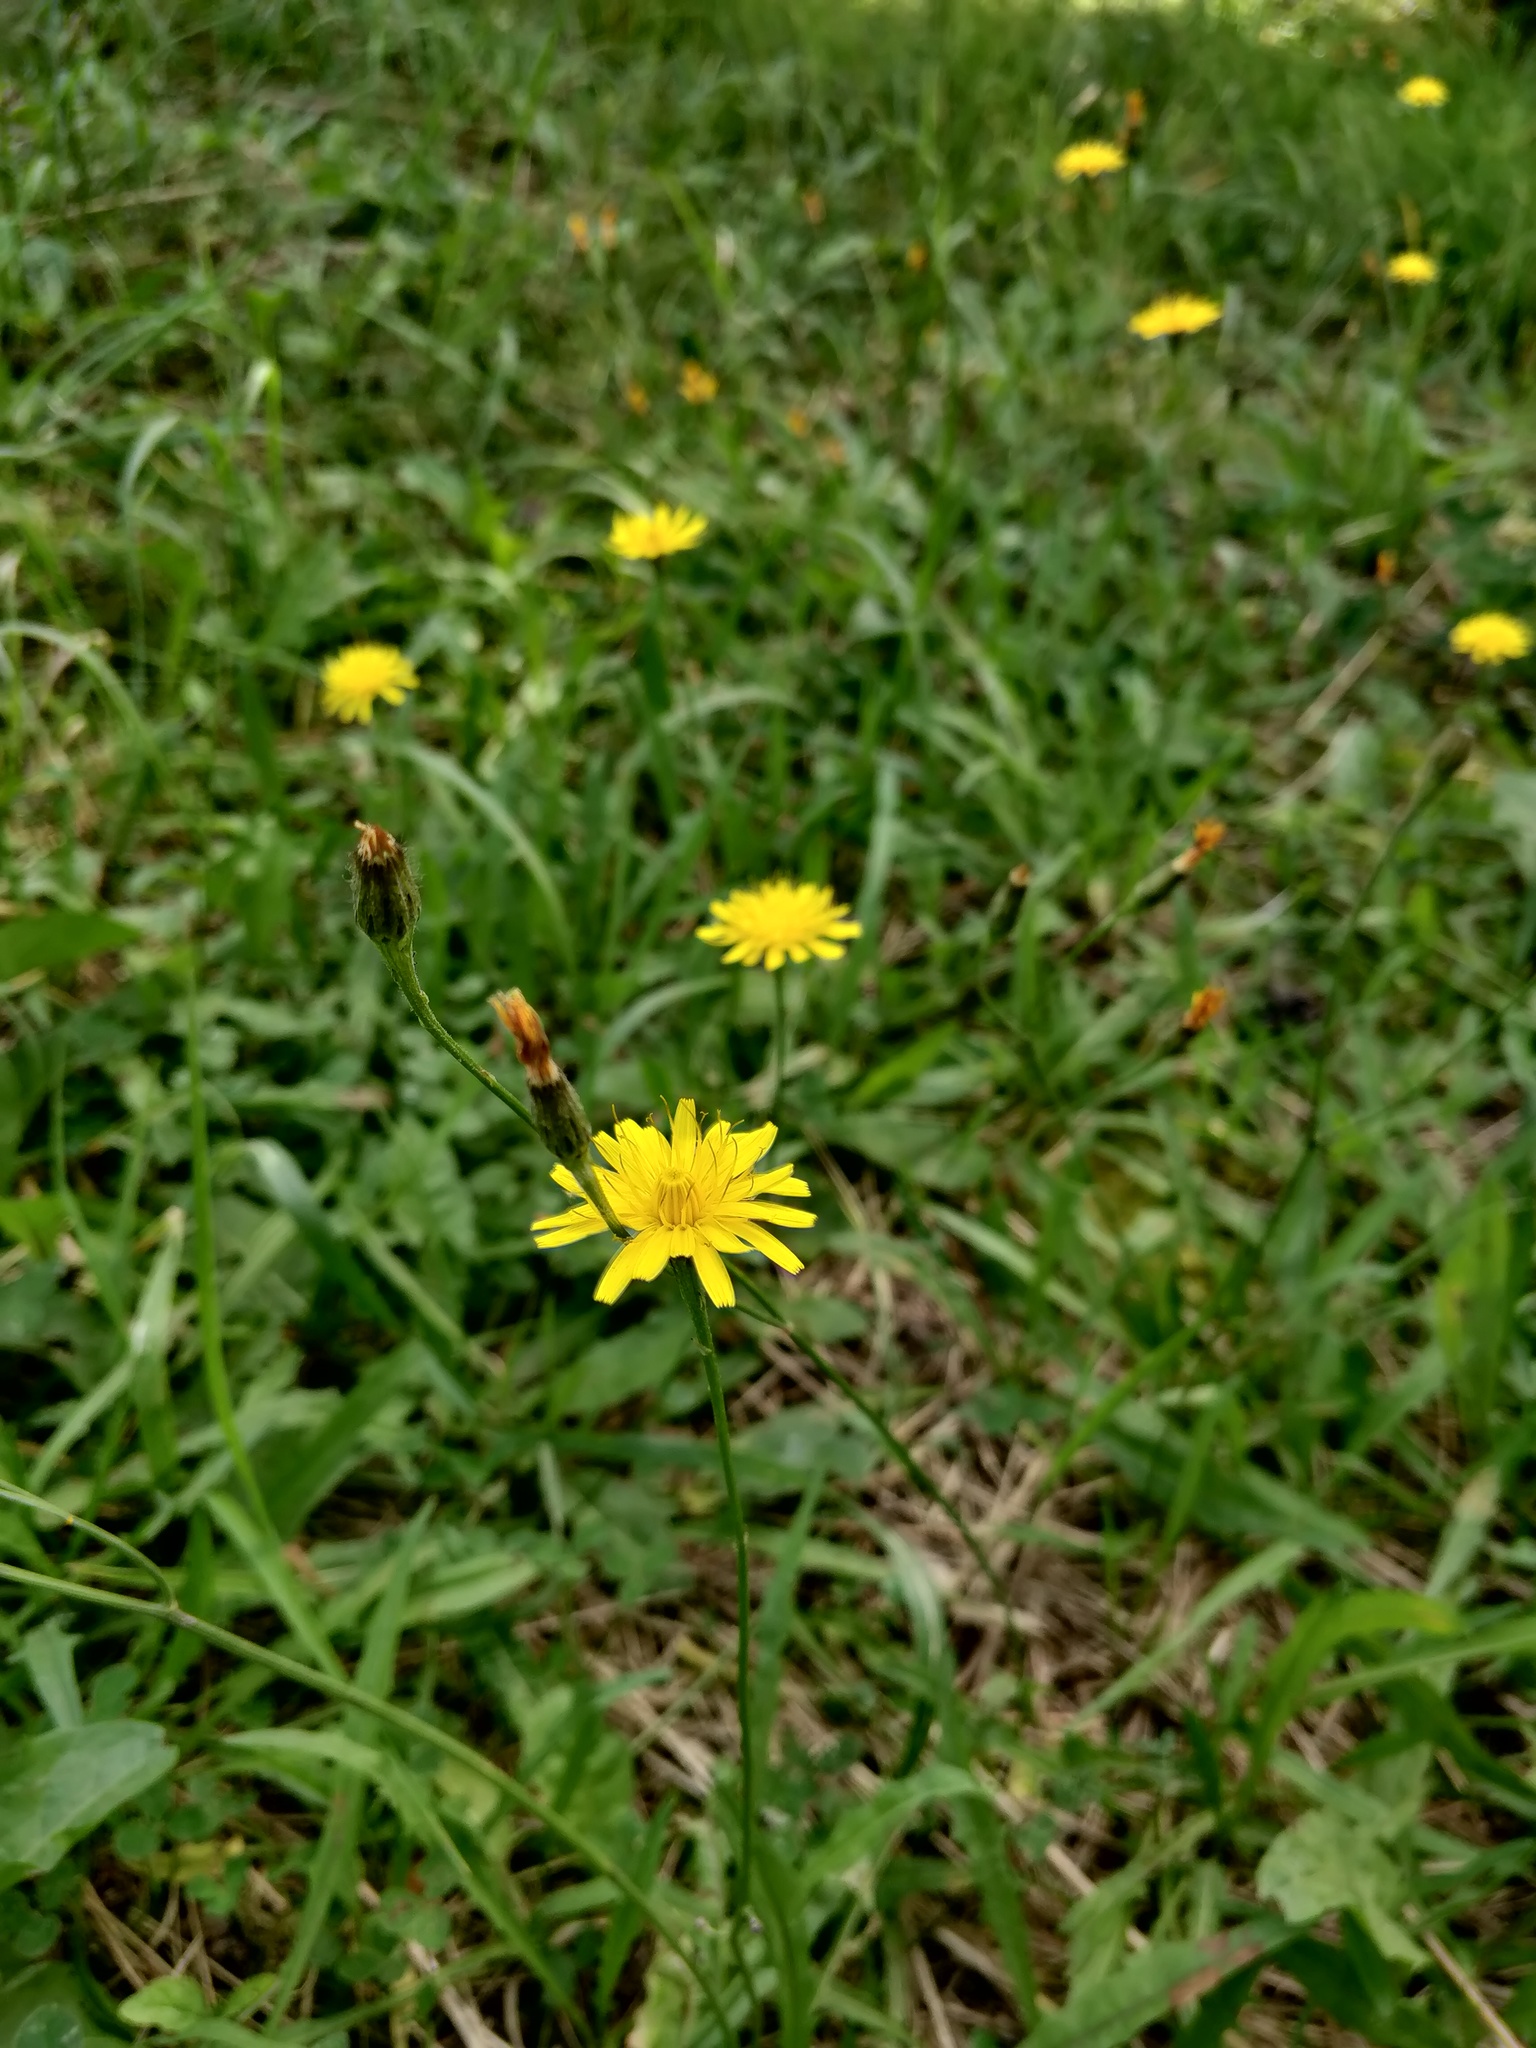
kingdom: Plantae
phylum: Tracheophyta
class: Magnoliopsida
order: Asterales
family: Asteraceae
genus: Scorzoneroides
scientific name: Scorzoneroides autumnalis
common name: Autumn hawkbit
